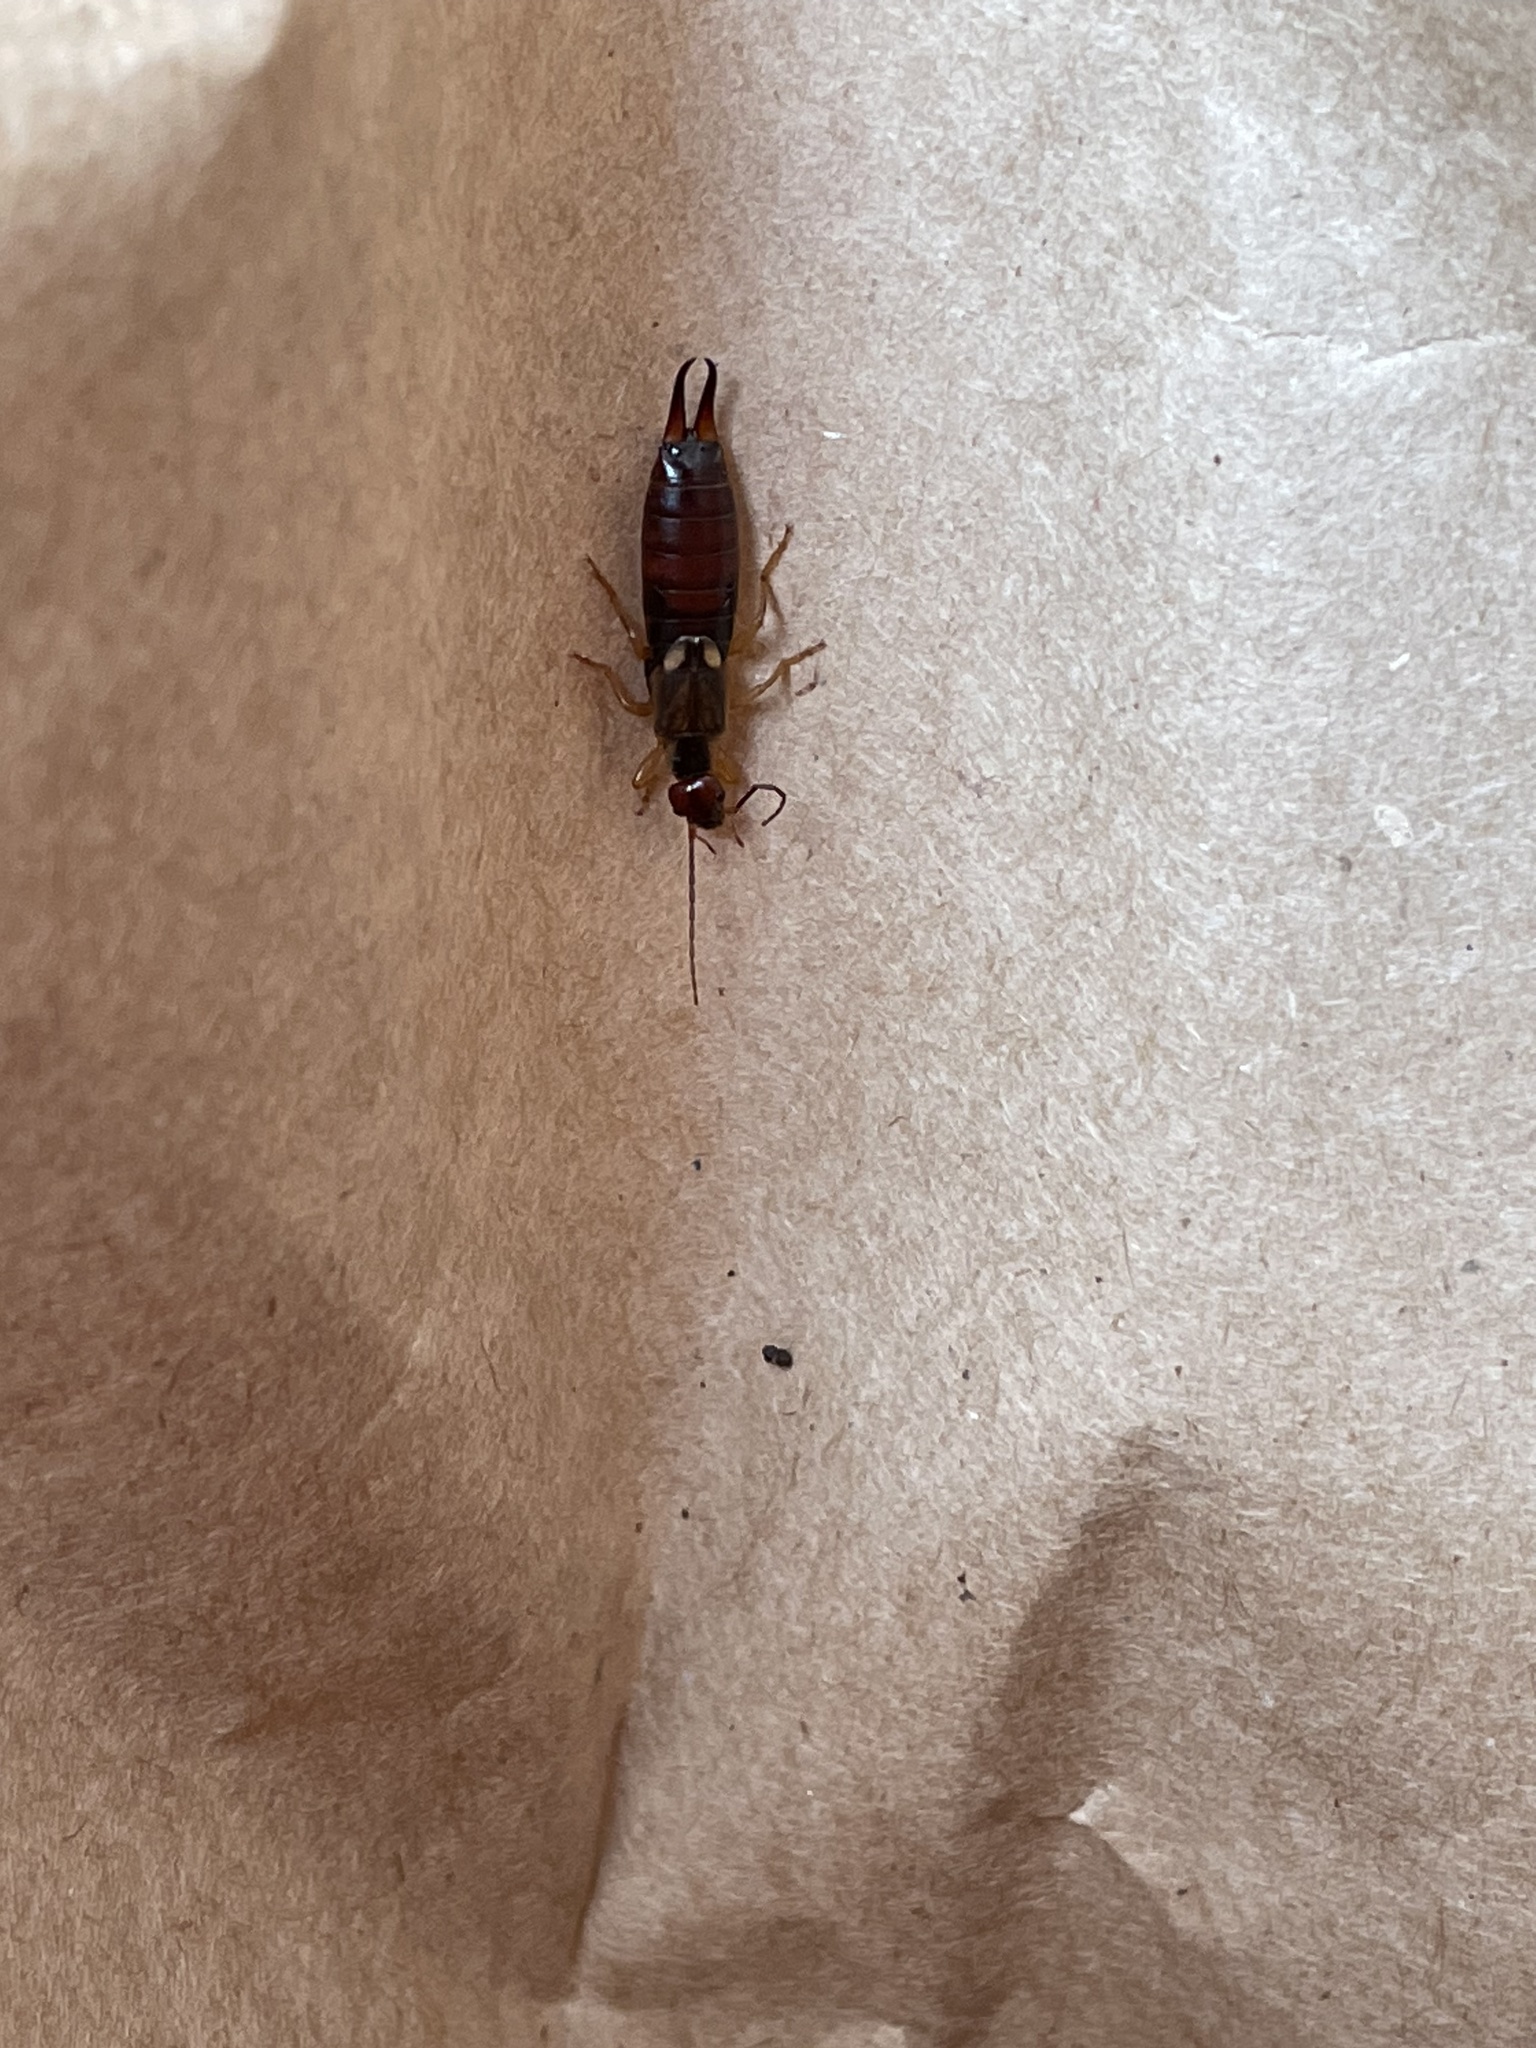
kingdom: Animalia
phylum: Arthropoda
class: Insecta
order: Dermaptera
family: Forficulidae
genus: Forficula
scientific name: Forficula
